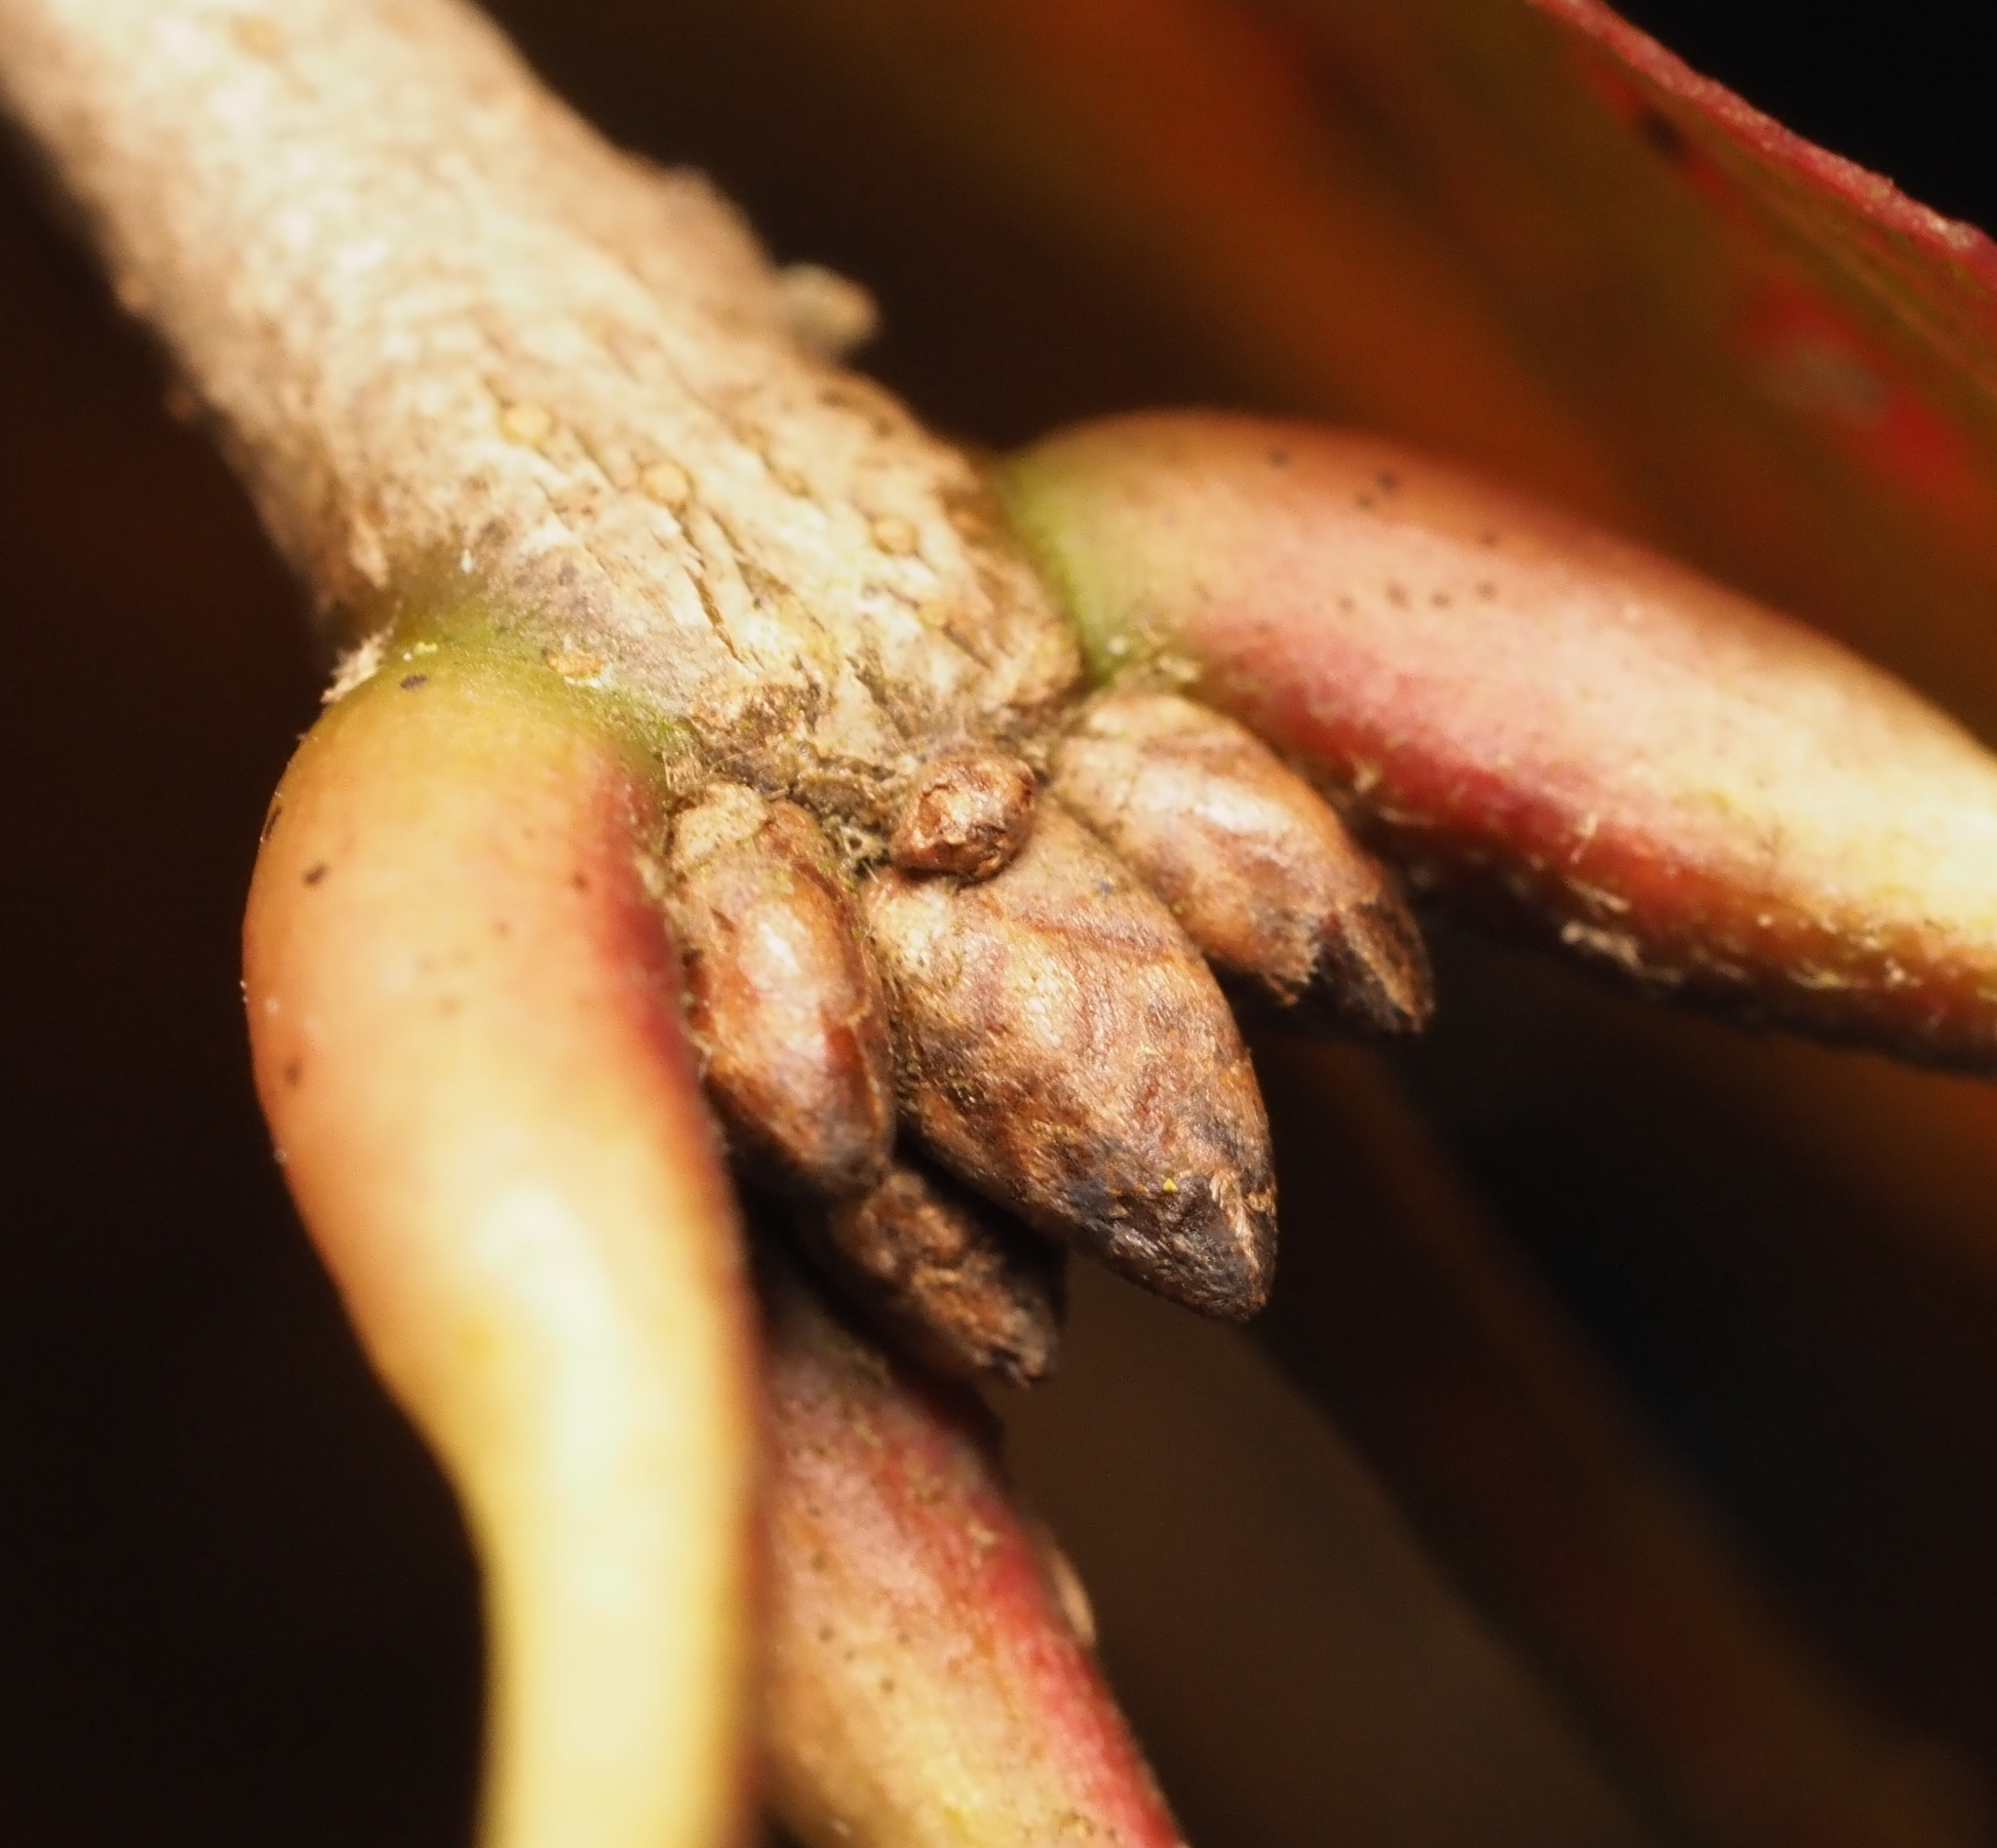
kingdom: Plantae
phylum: Tracheophyta
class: Magnoliopsida
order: Fagales
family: Fagaceae
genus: Quercus
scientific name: Quercus rubra
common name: Red oak
